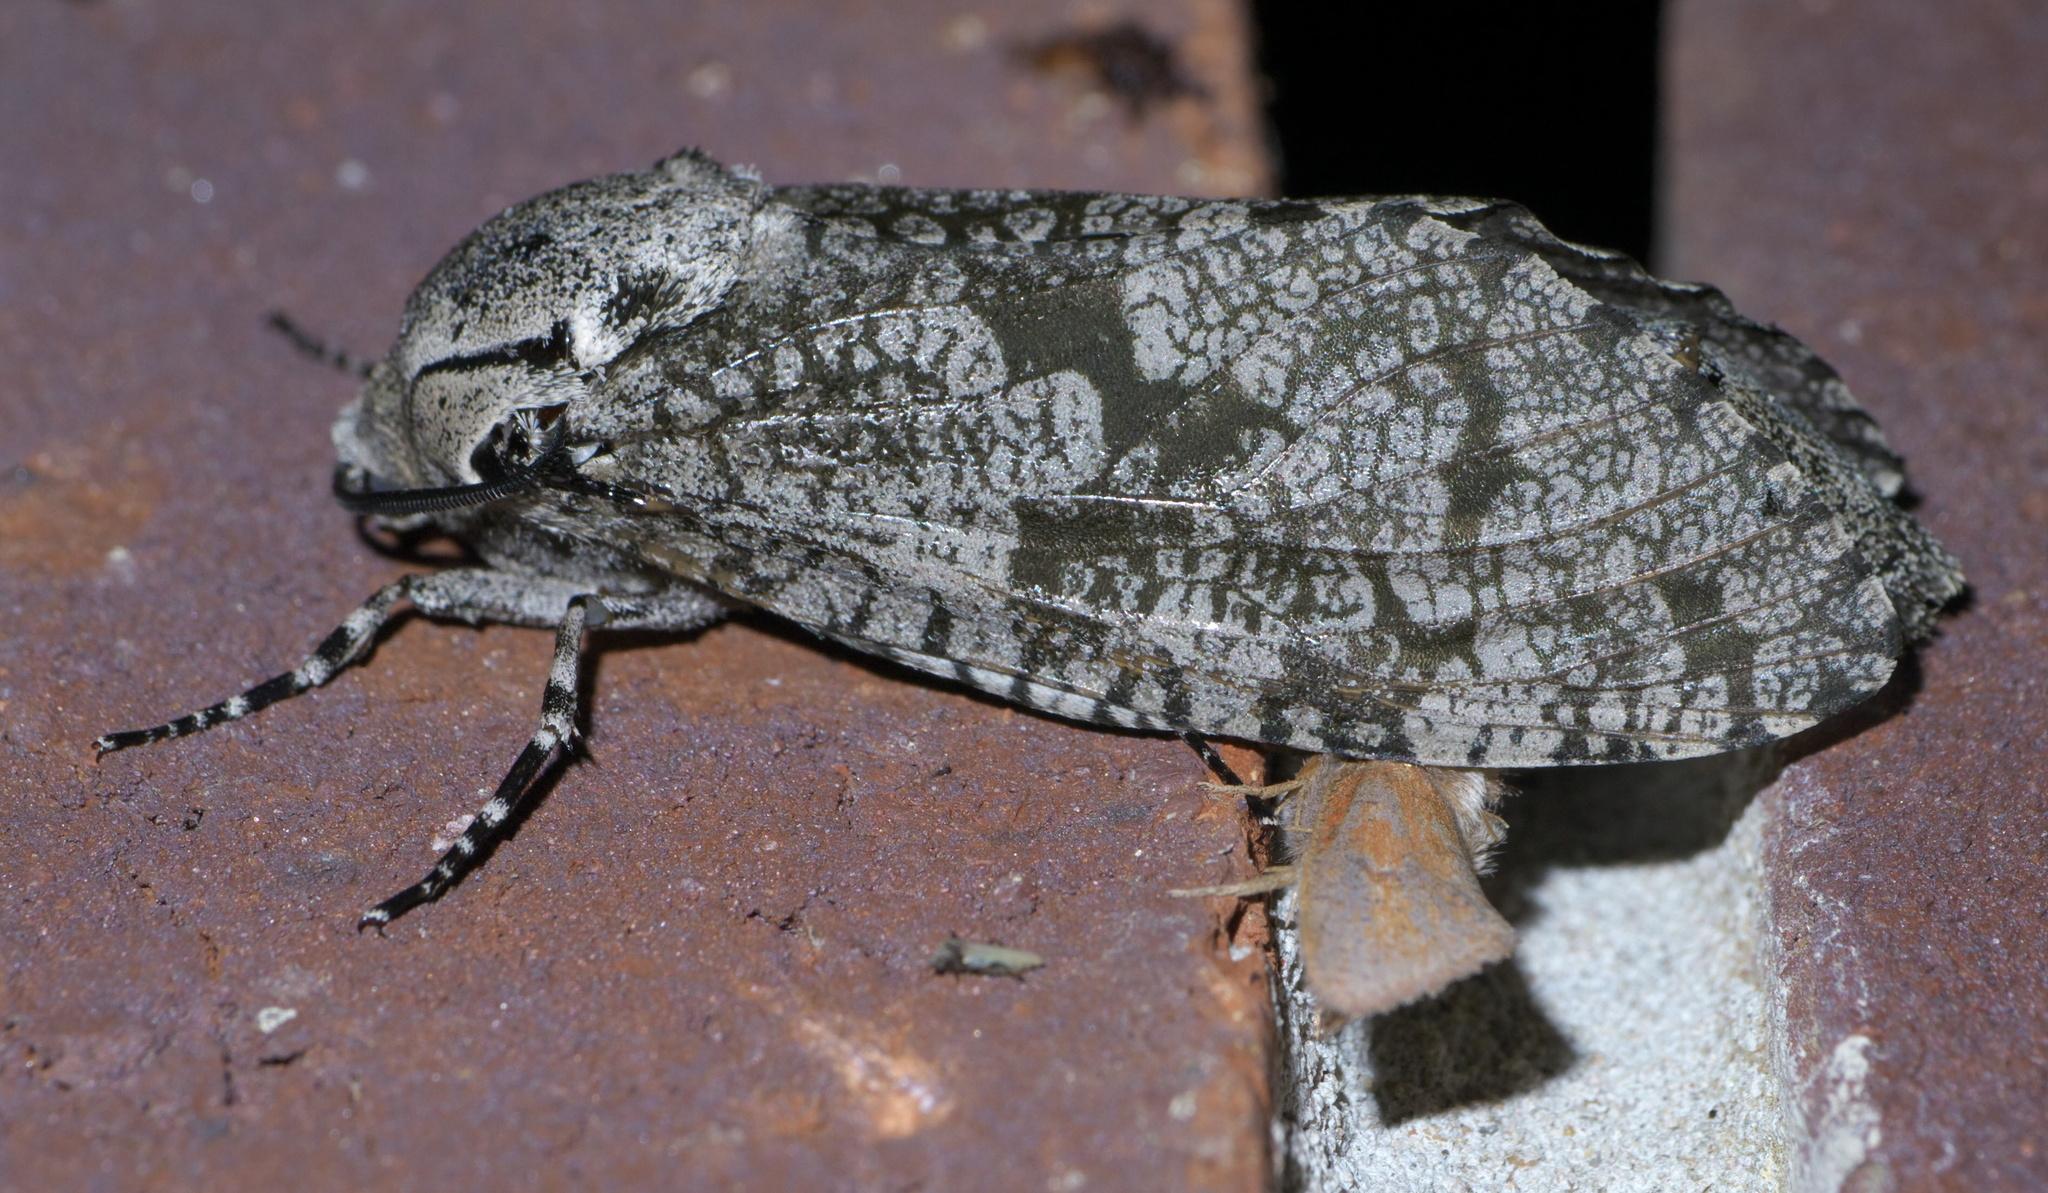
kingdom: Animalia
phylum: Arthropoda
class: Insecta
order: Lepidoptera
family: Cossidae
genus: Prionoxystus
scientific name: Prionoxystus robiniae
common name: Carpenterworm
